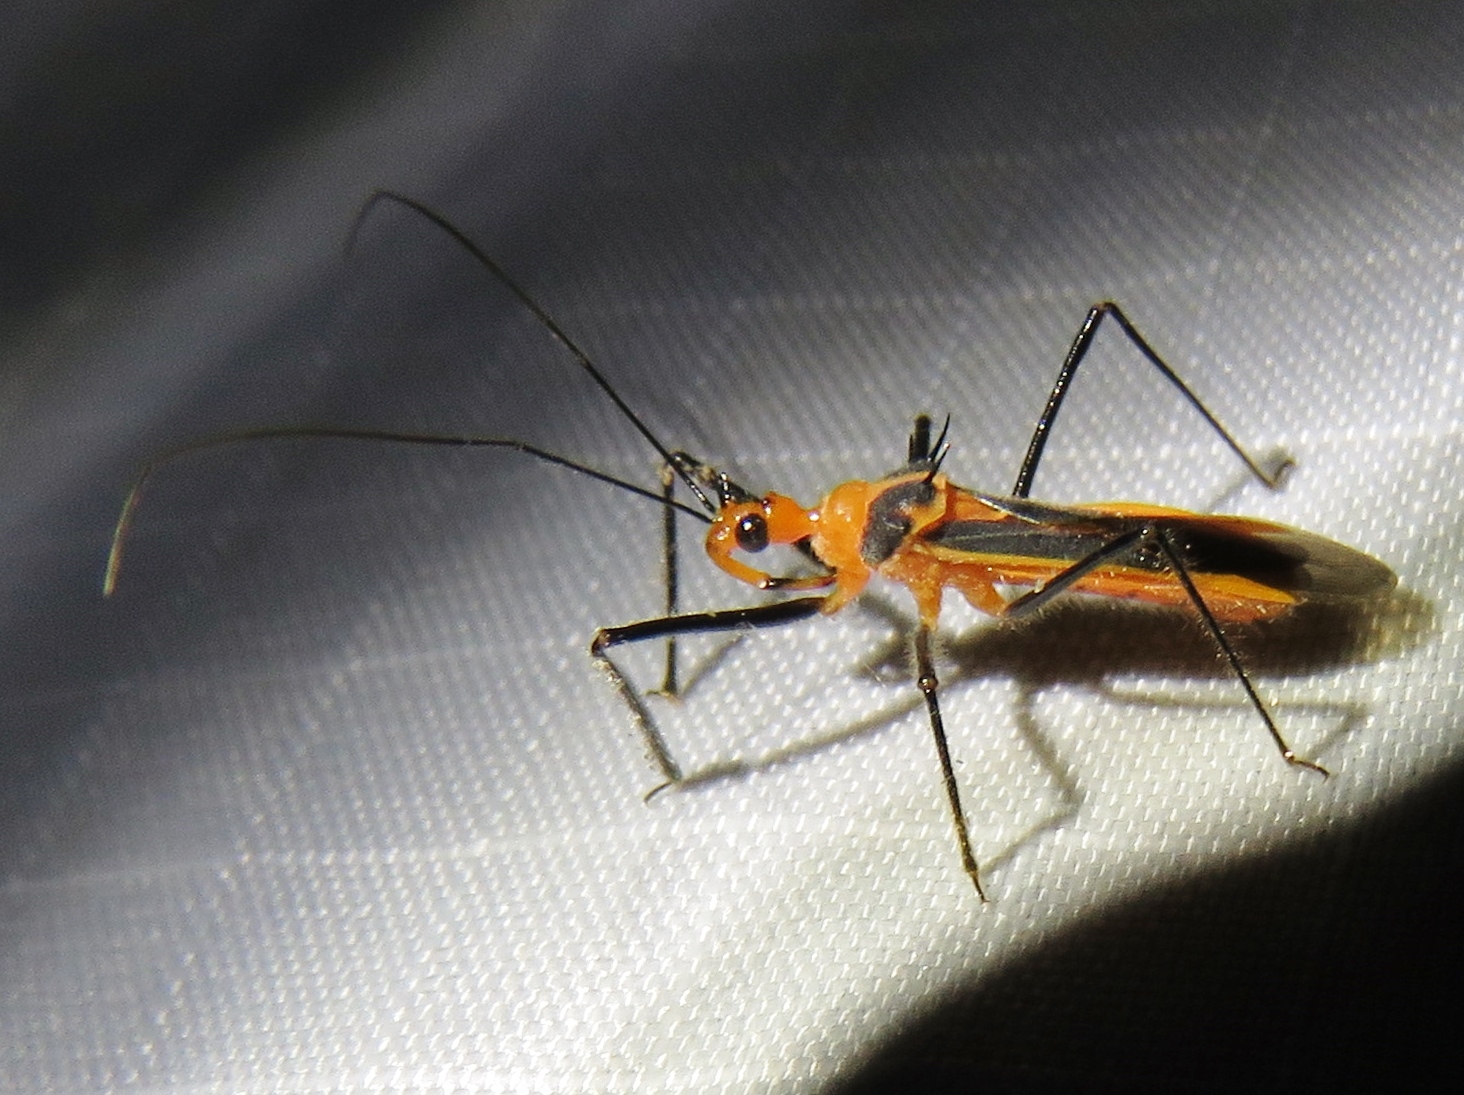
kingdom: Animalia
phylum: Arthropoda
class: Insecta
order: Hemiptera
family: Reduviidae
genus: Repipta
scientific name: Repipta taurus
